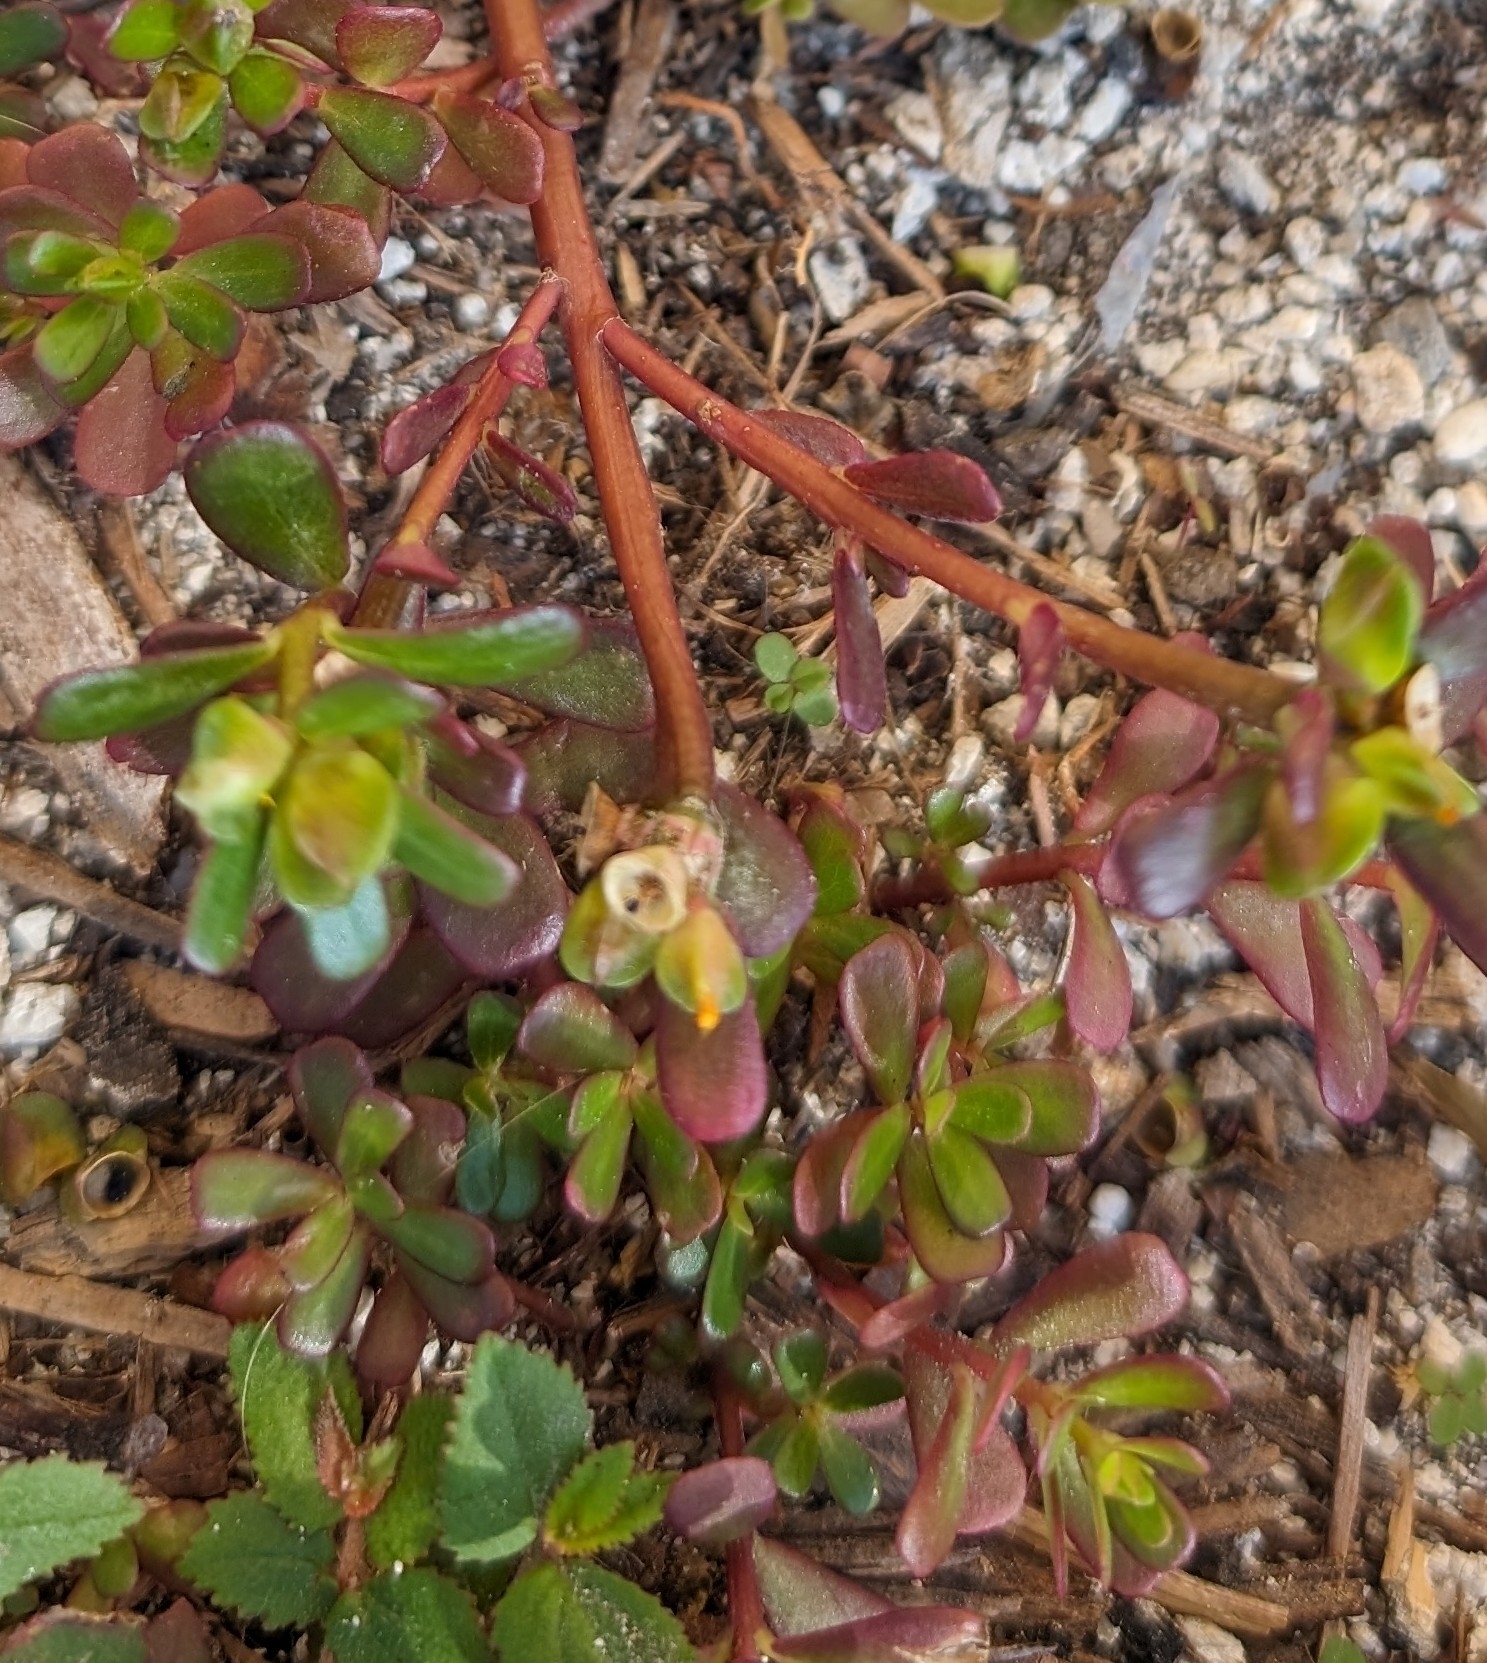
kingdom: Plantae
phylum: Tracheophyta
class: Magnoliopsida
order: Caryophyllales
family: Portulacaceae
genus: Portulaca
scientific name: Portulaca oleracea
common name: Common purslane
